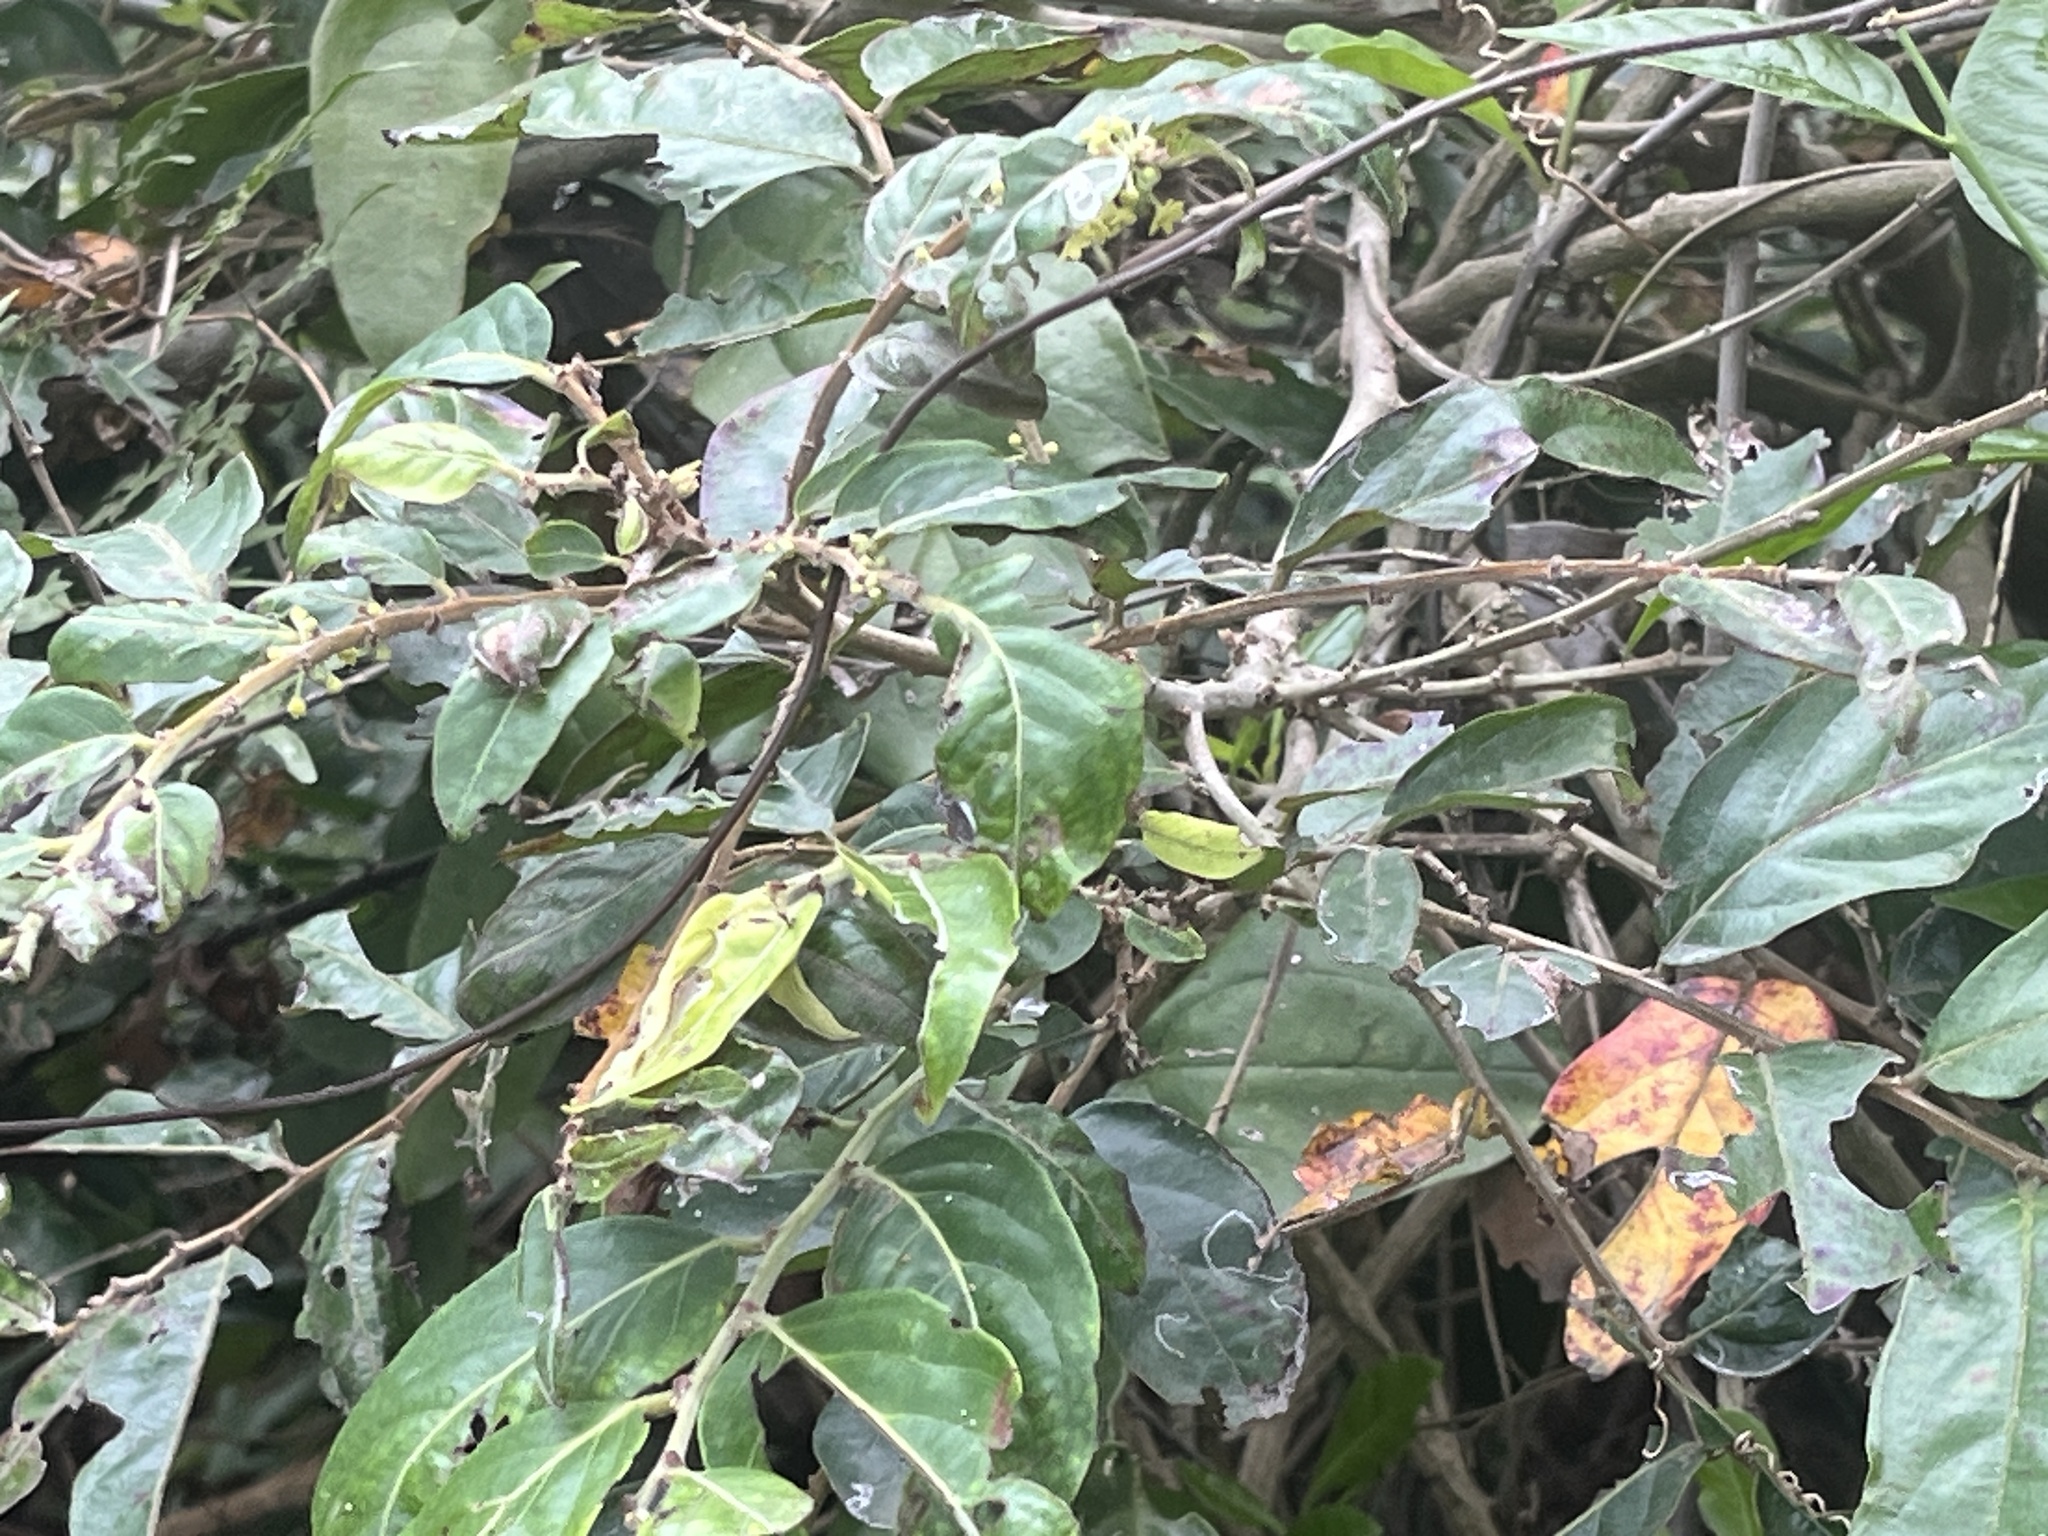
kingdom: Plantae
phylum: Tracheophyta
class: Magnoliopsida
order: Malpighiales
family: Phyllanthaceae
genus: Glochidion
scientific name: Glochidion philippicum
